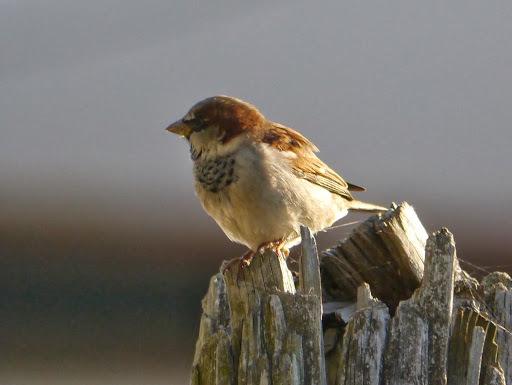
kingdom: Animalia
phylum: Chordata
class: Aves
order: Passeriformes
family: Passeridae
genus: Passer
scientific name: Passer domesticus
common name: House sparrow
